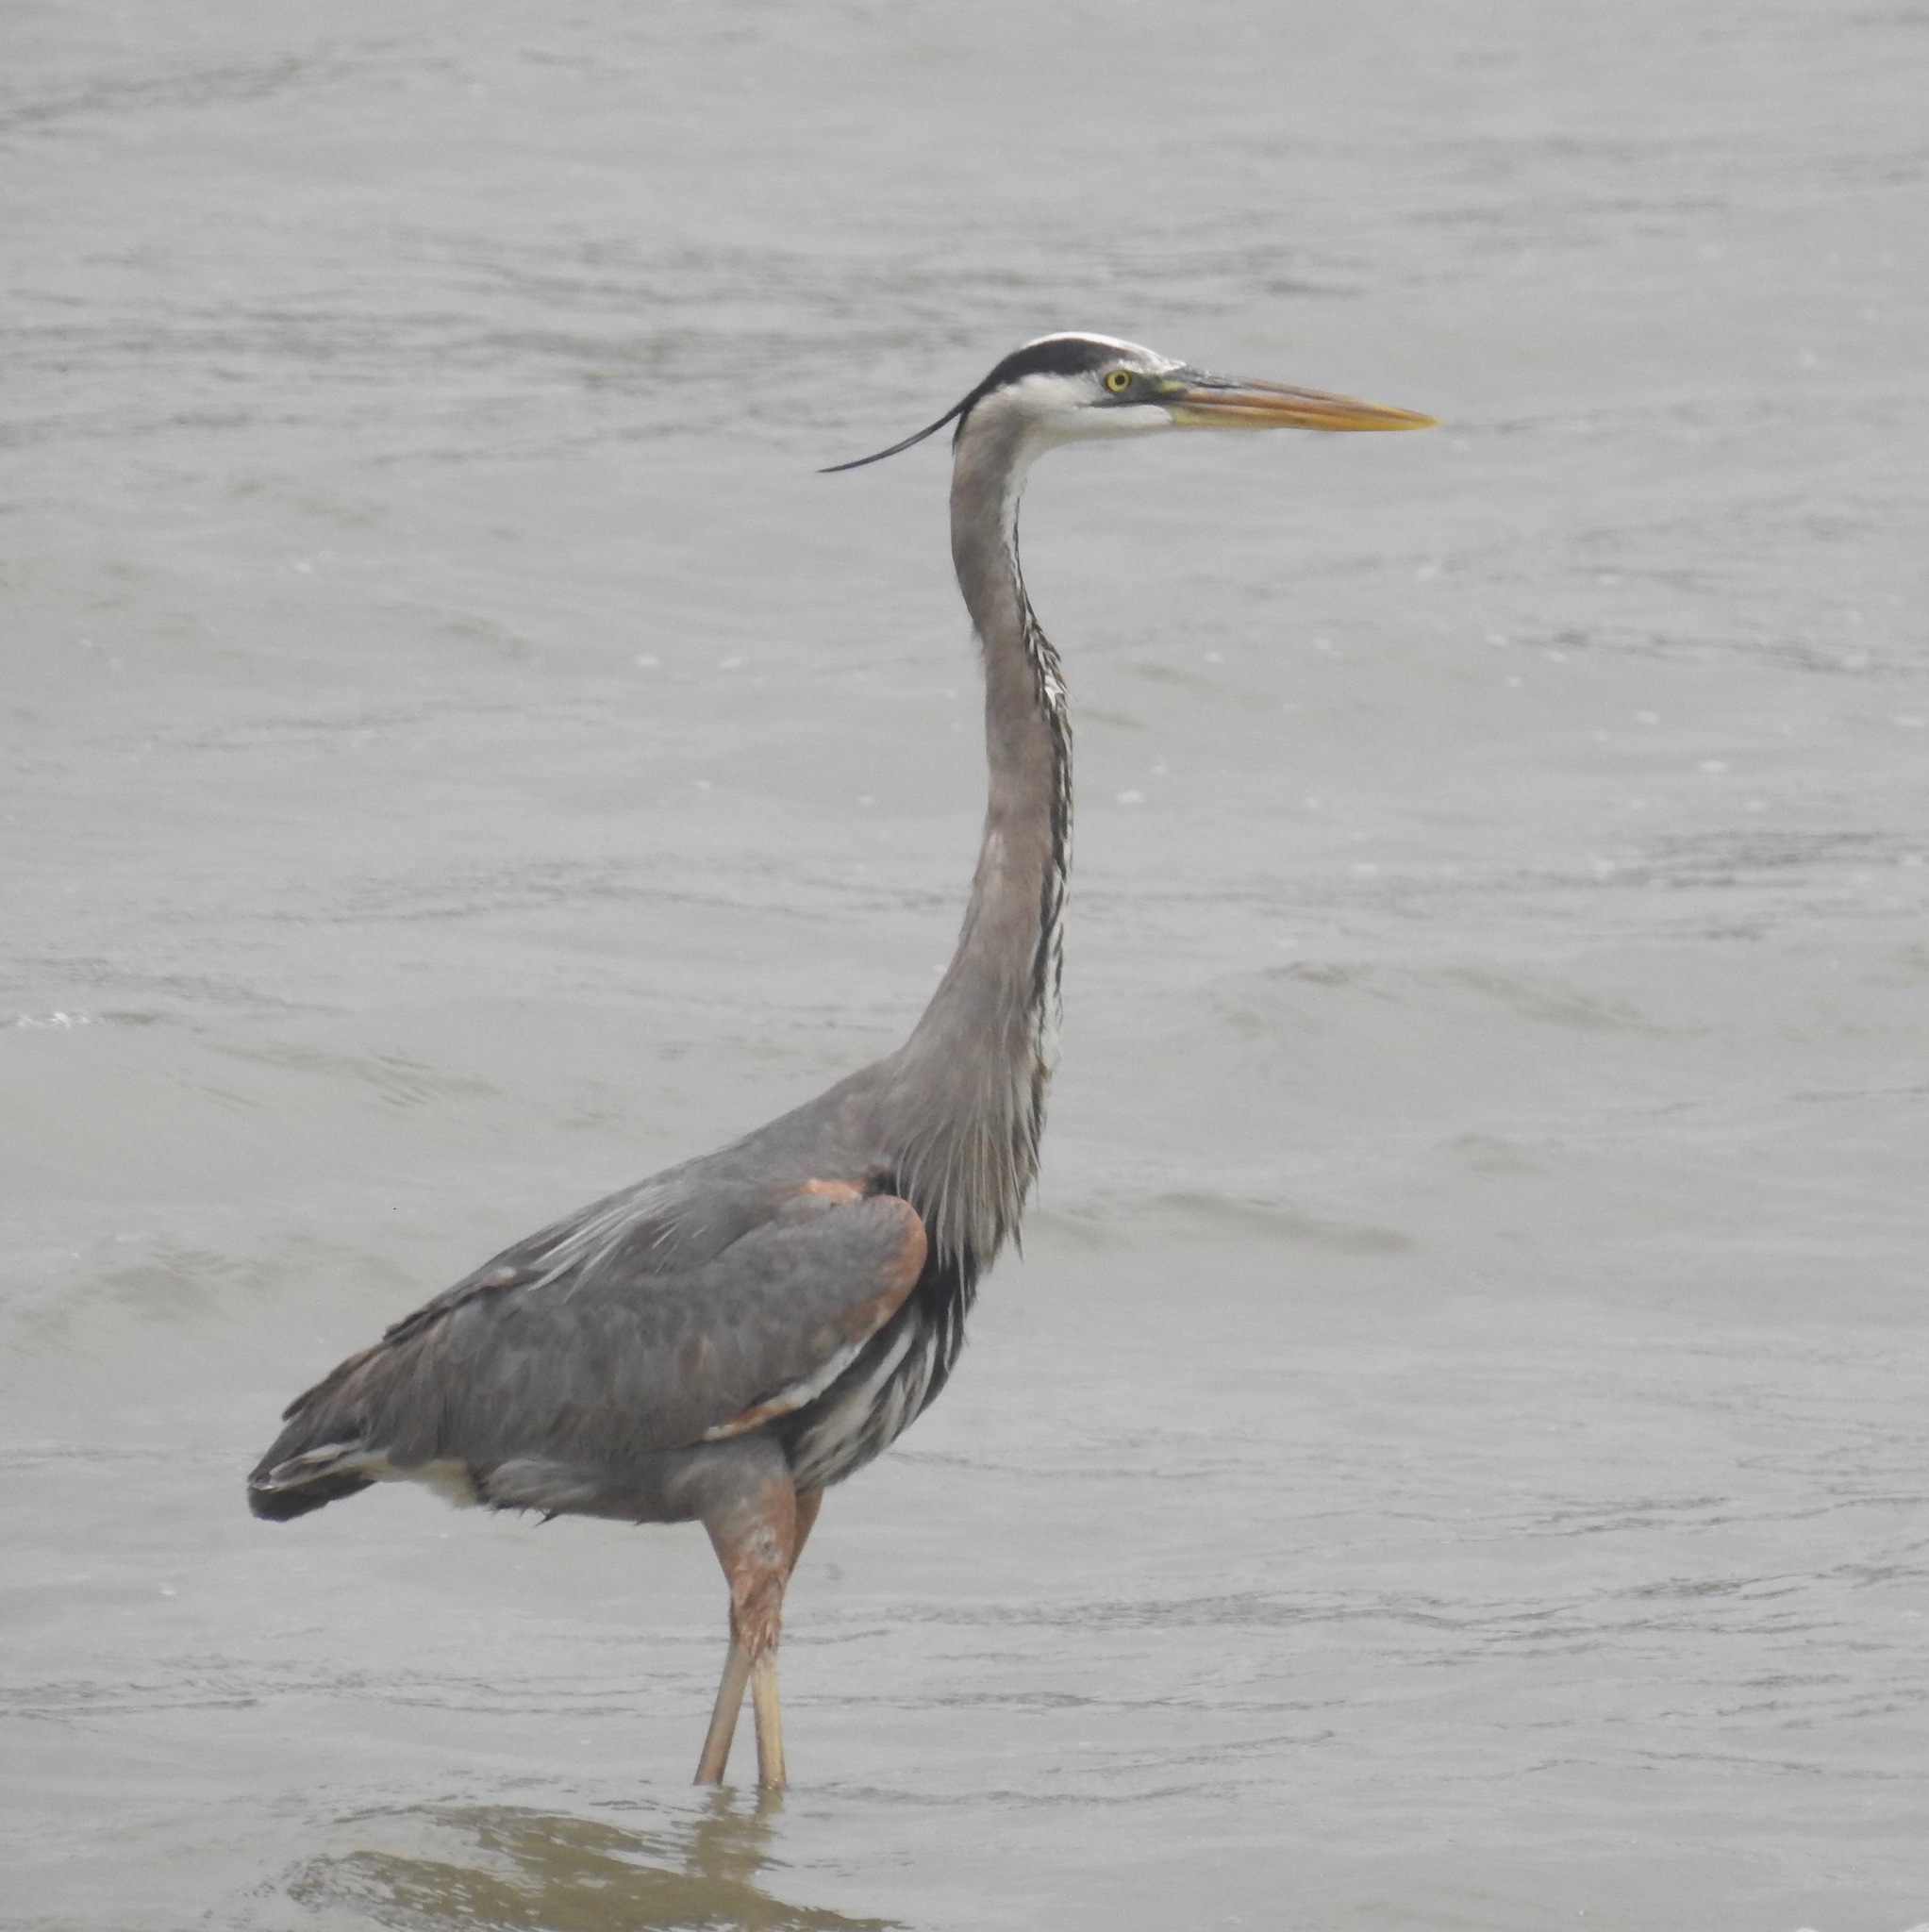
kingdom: Animalia
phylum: Chordata
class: Aves
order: Pelecaniformes
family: Ardeidae
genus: Ardea
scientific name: Ardea herodias
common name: Great blue heron
